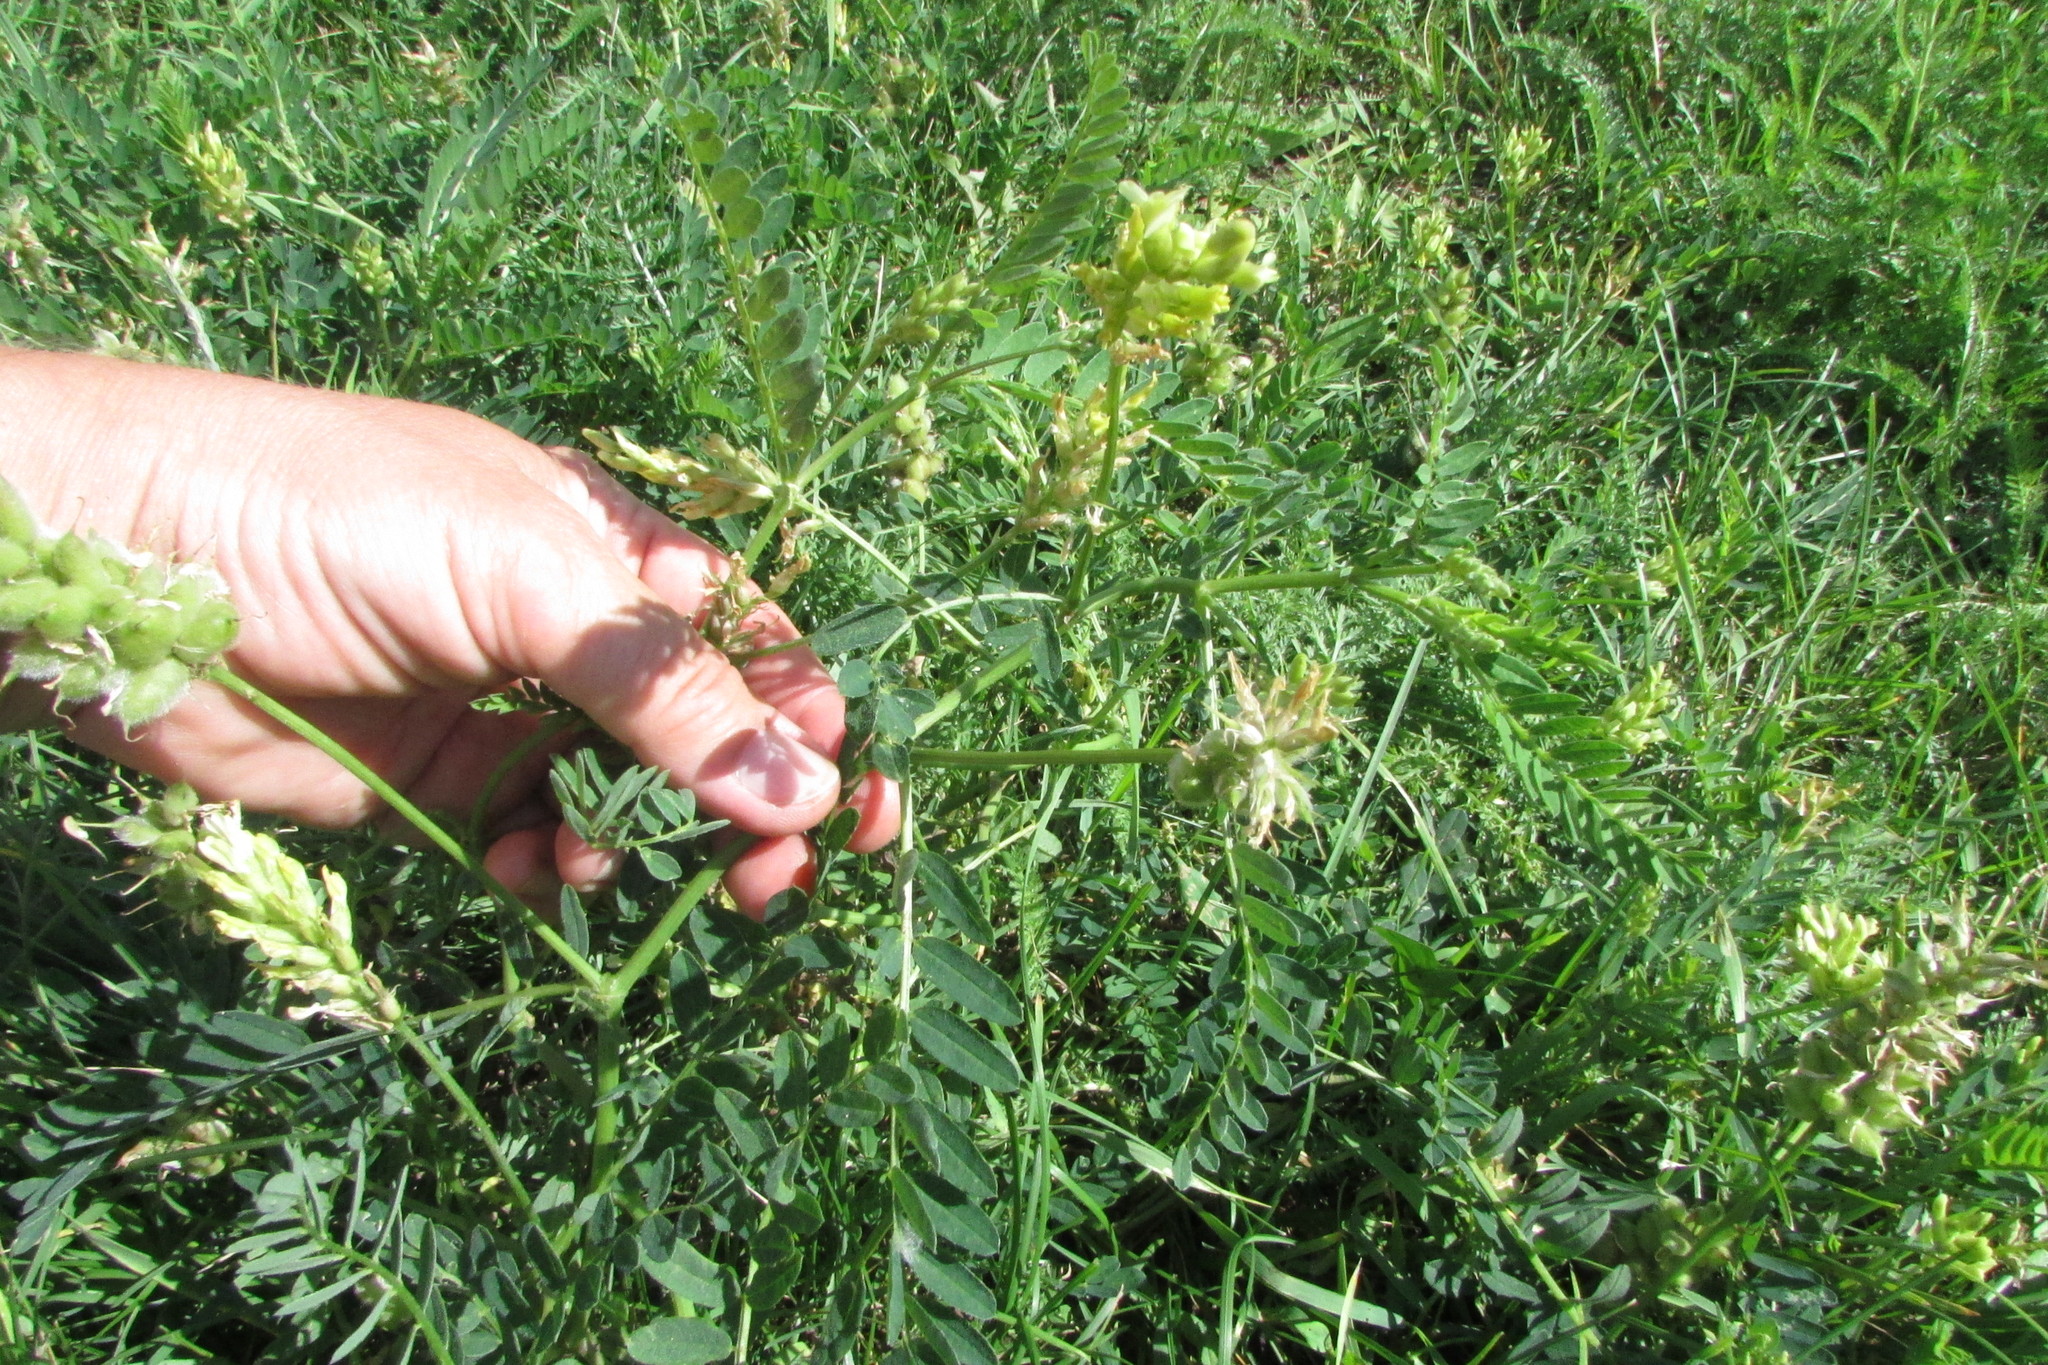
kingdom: Plantae
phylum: Tracheophyta
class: Magnoliopsida
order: Fabales
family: Fabaceae
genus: Astragalus
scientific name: Astragalus cicer
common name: Chick-pea milk-vetch
